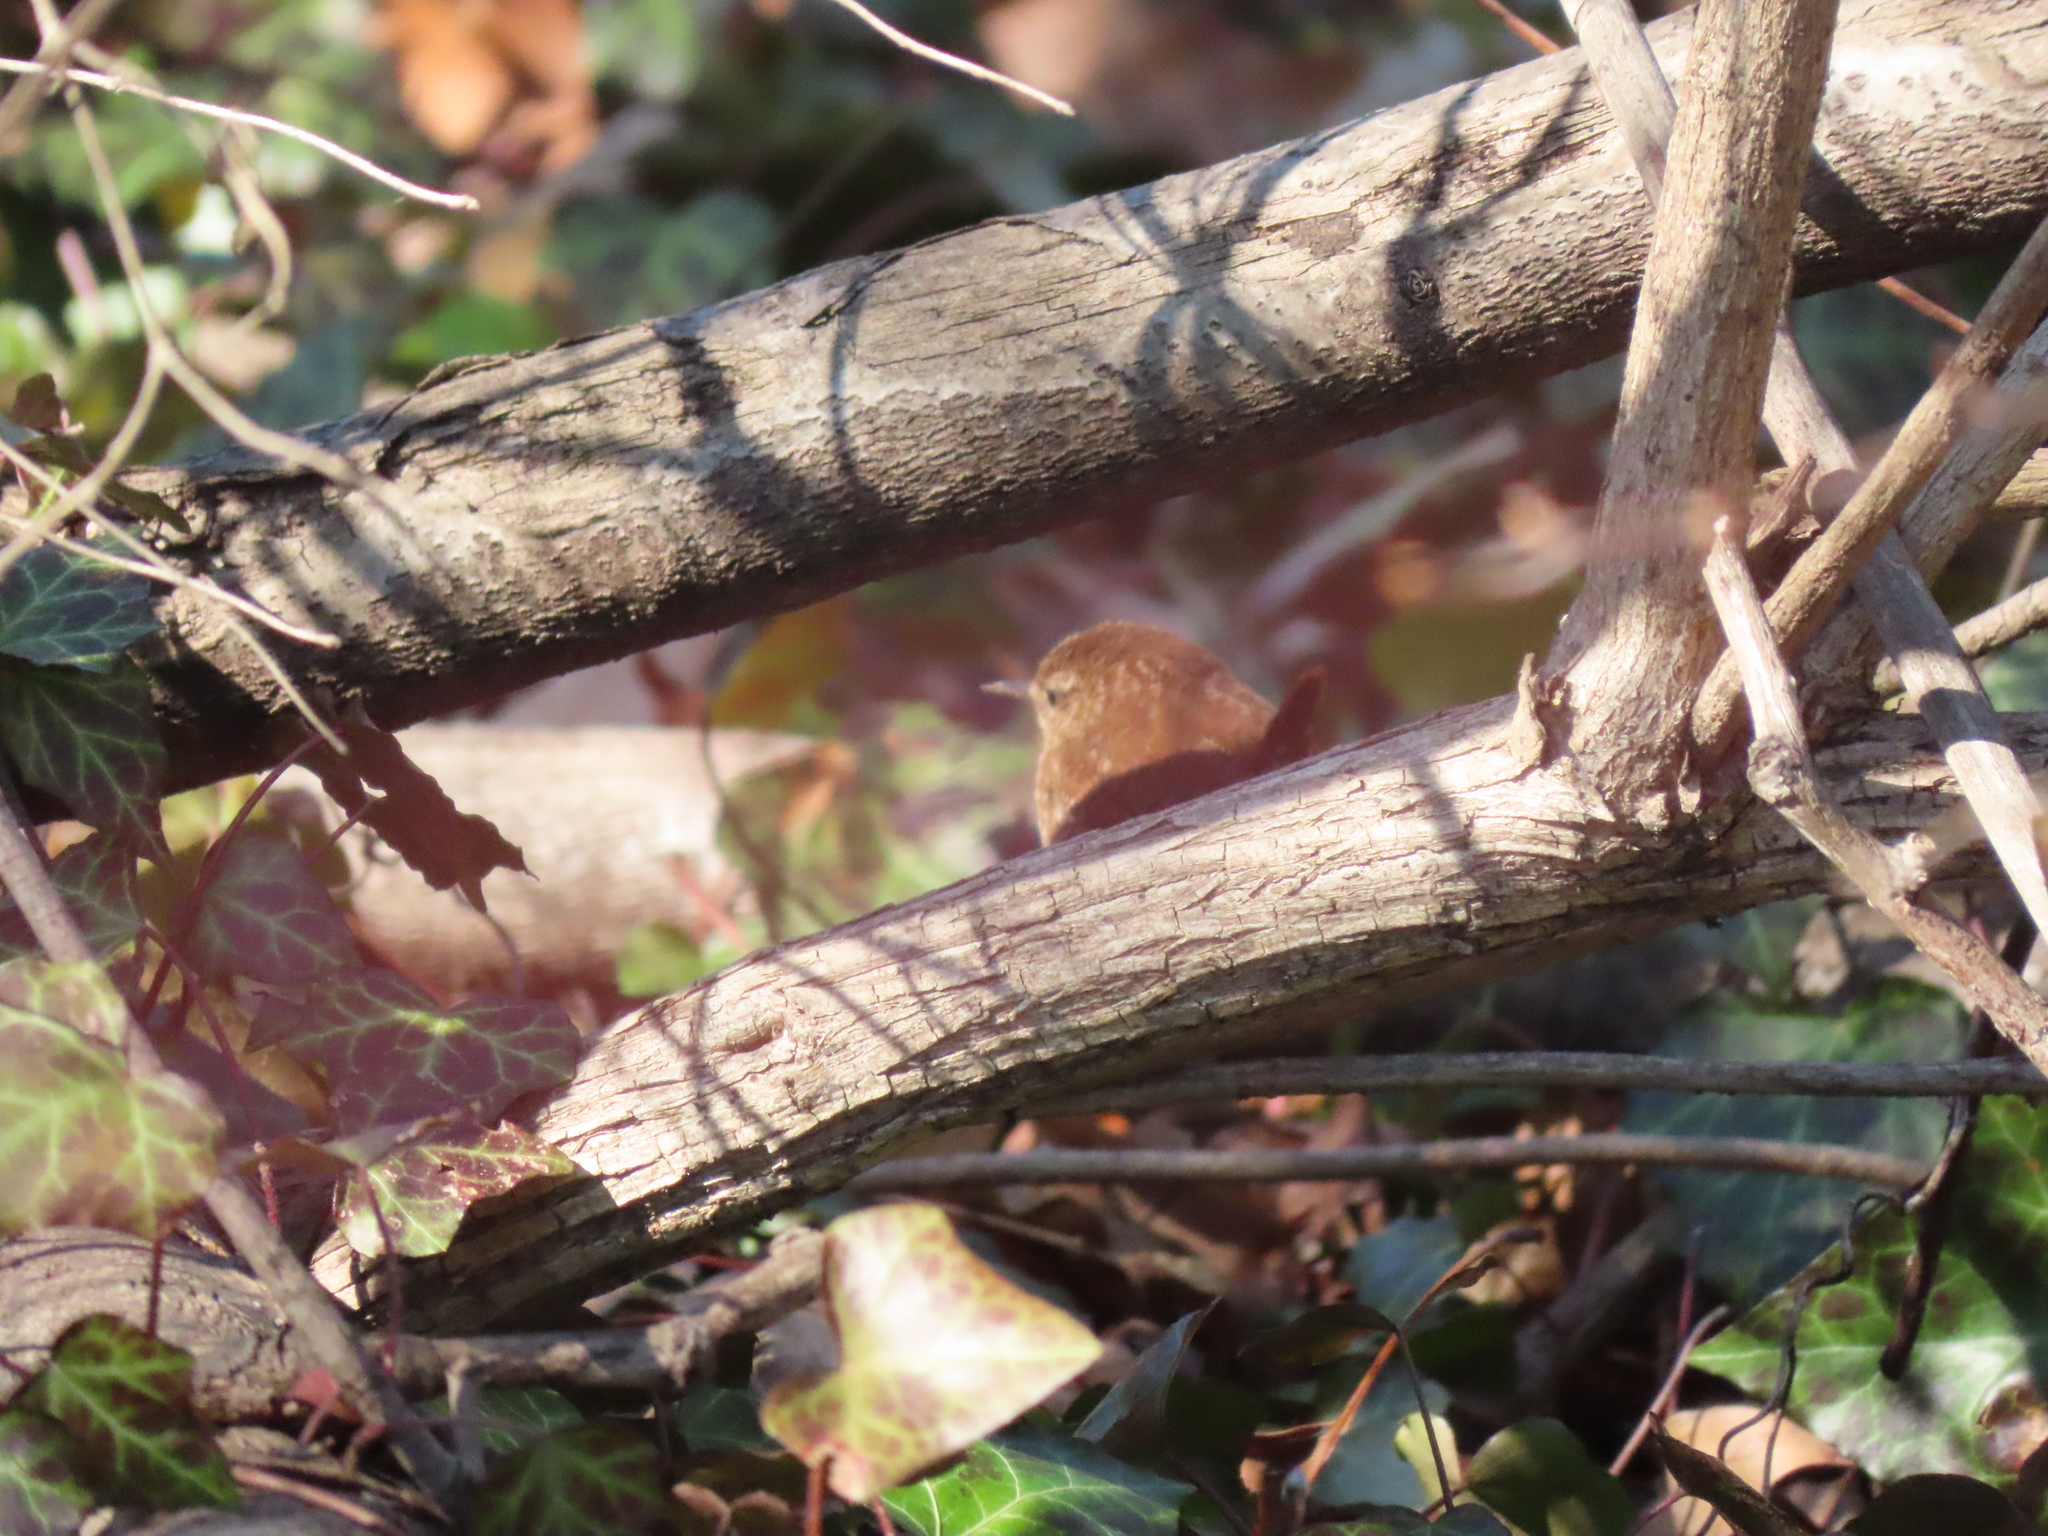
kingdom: Animalia
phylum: Chordata
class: Aves
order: Passeriformes
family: Troglodytidae
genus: Troglodytes
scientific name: Troglodytes hiemalis
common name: Winter wren
